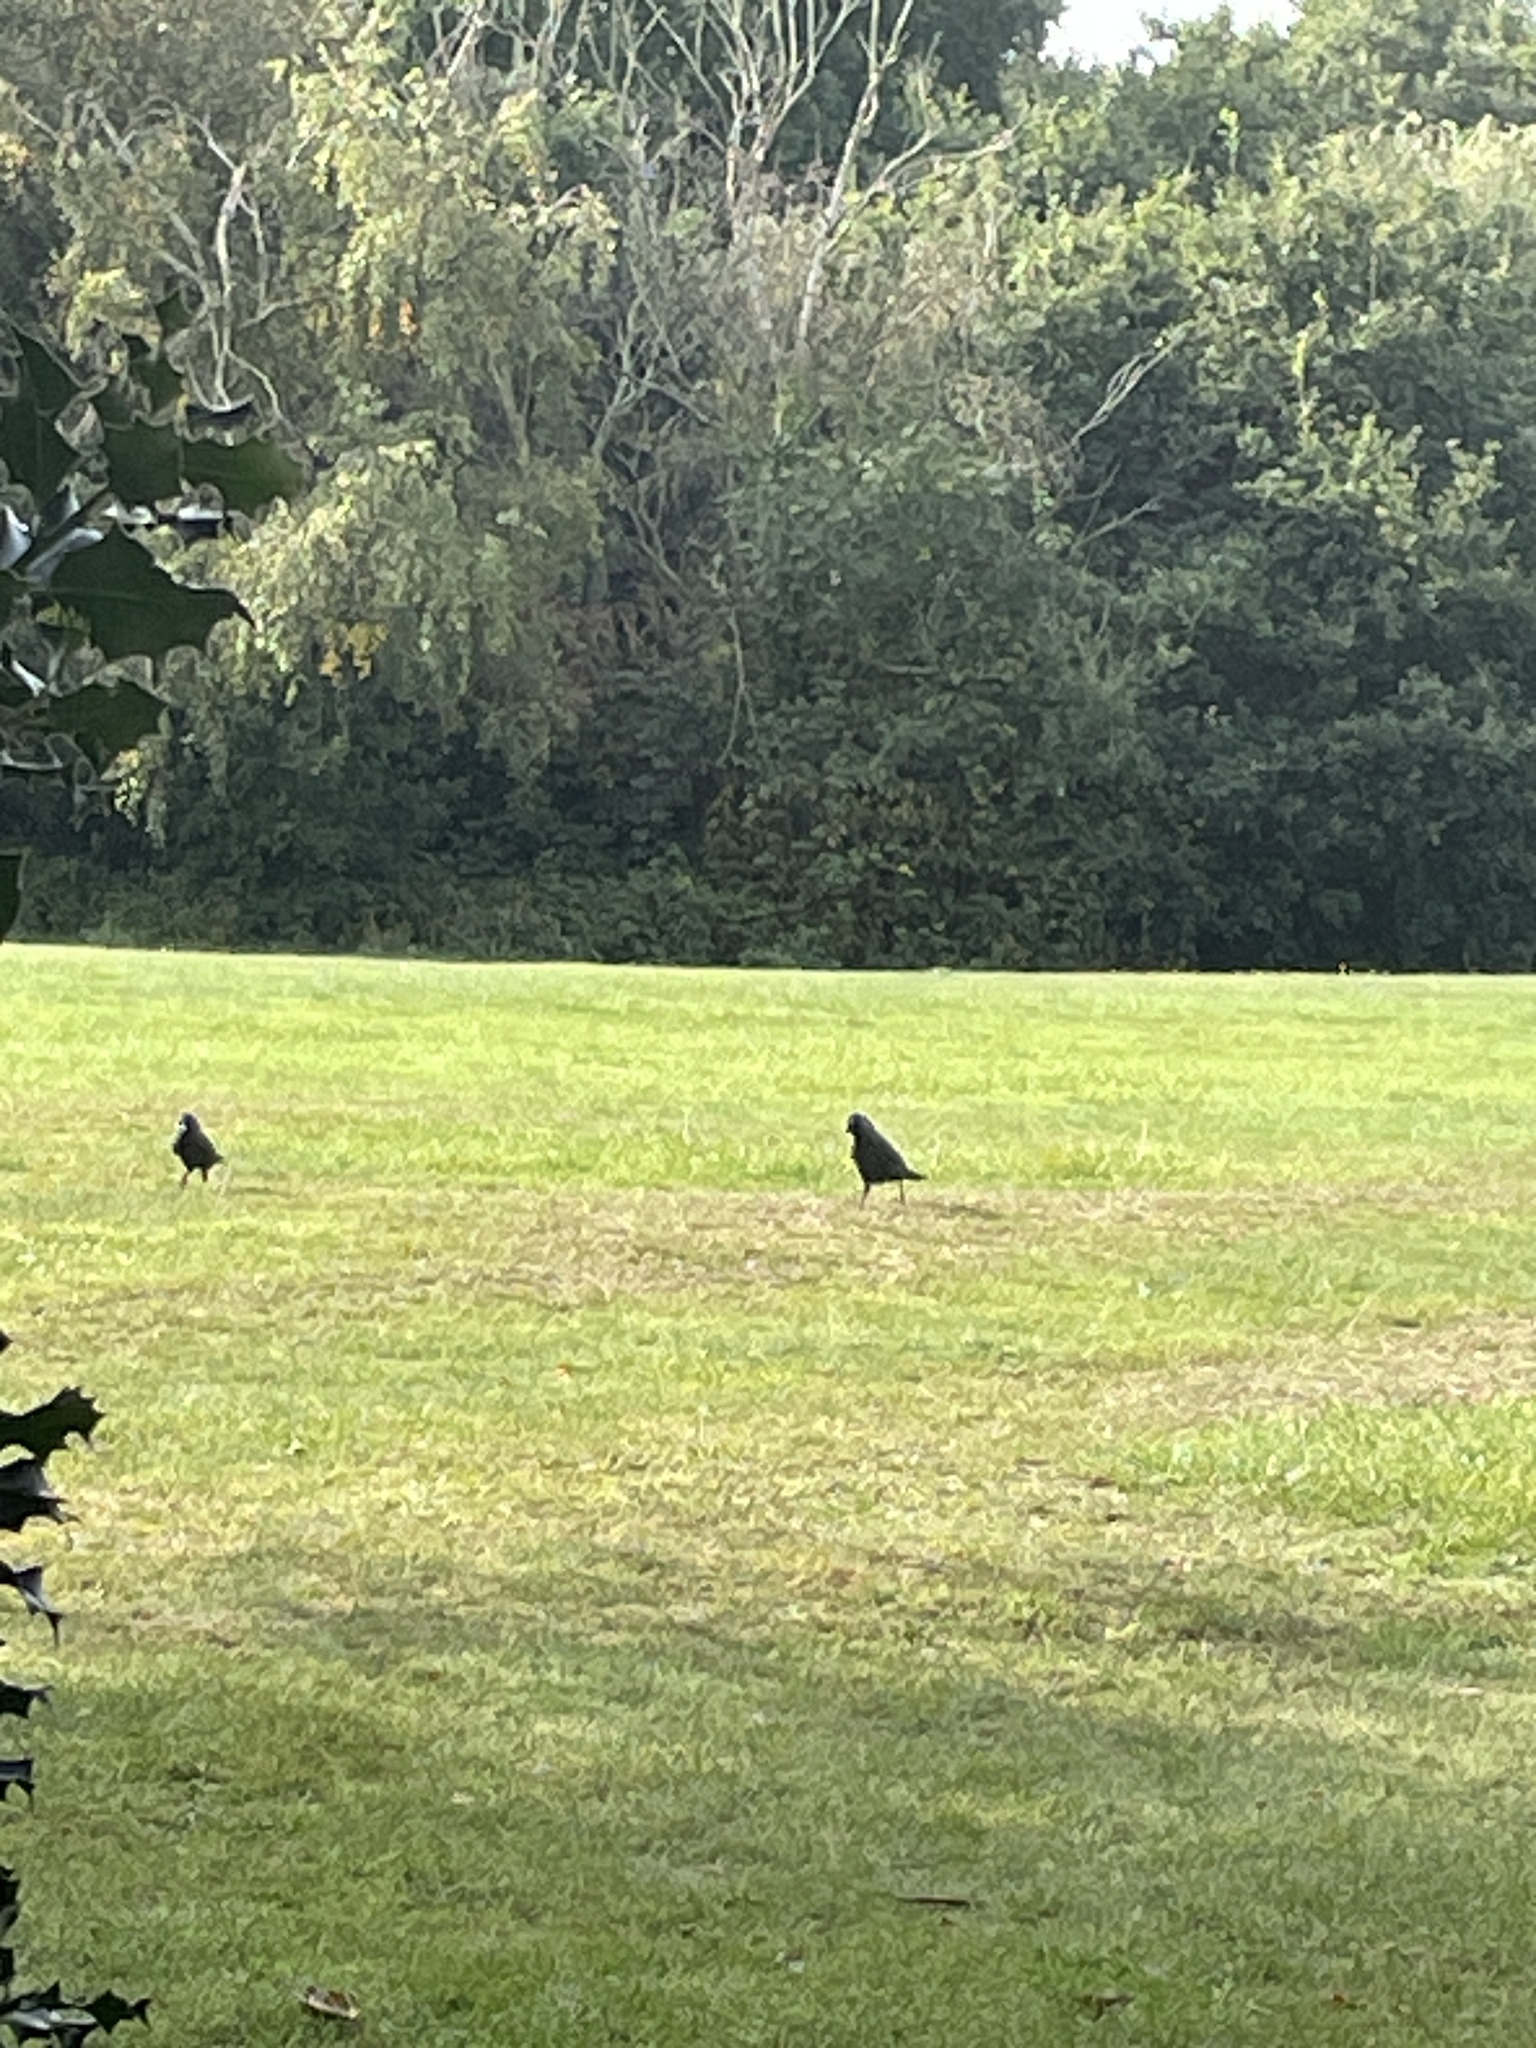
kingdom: Animalia
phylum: Chordata
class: Aves
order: Passeriformes
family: Corvidae
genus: Coloeus
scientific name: Coloeus monedula
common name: Western jackdaw
